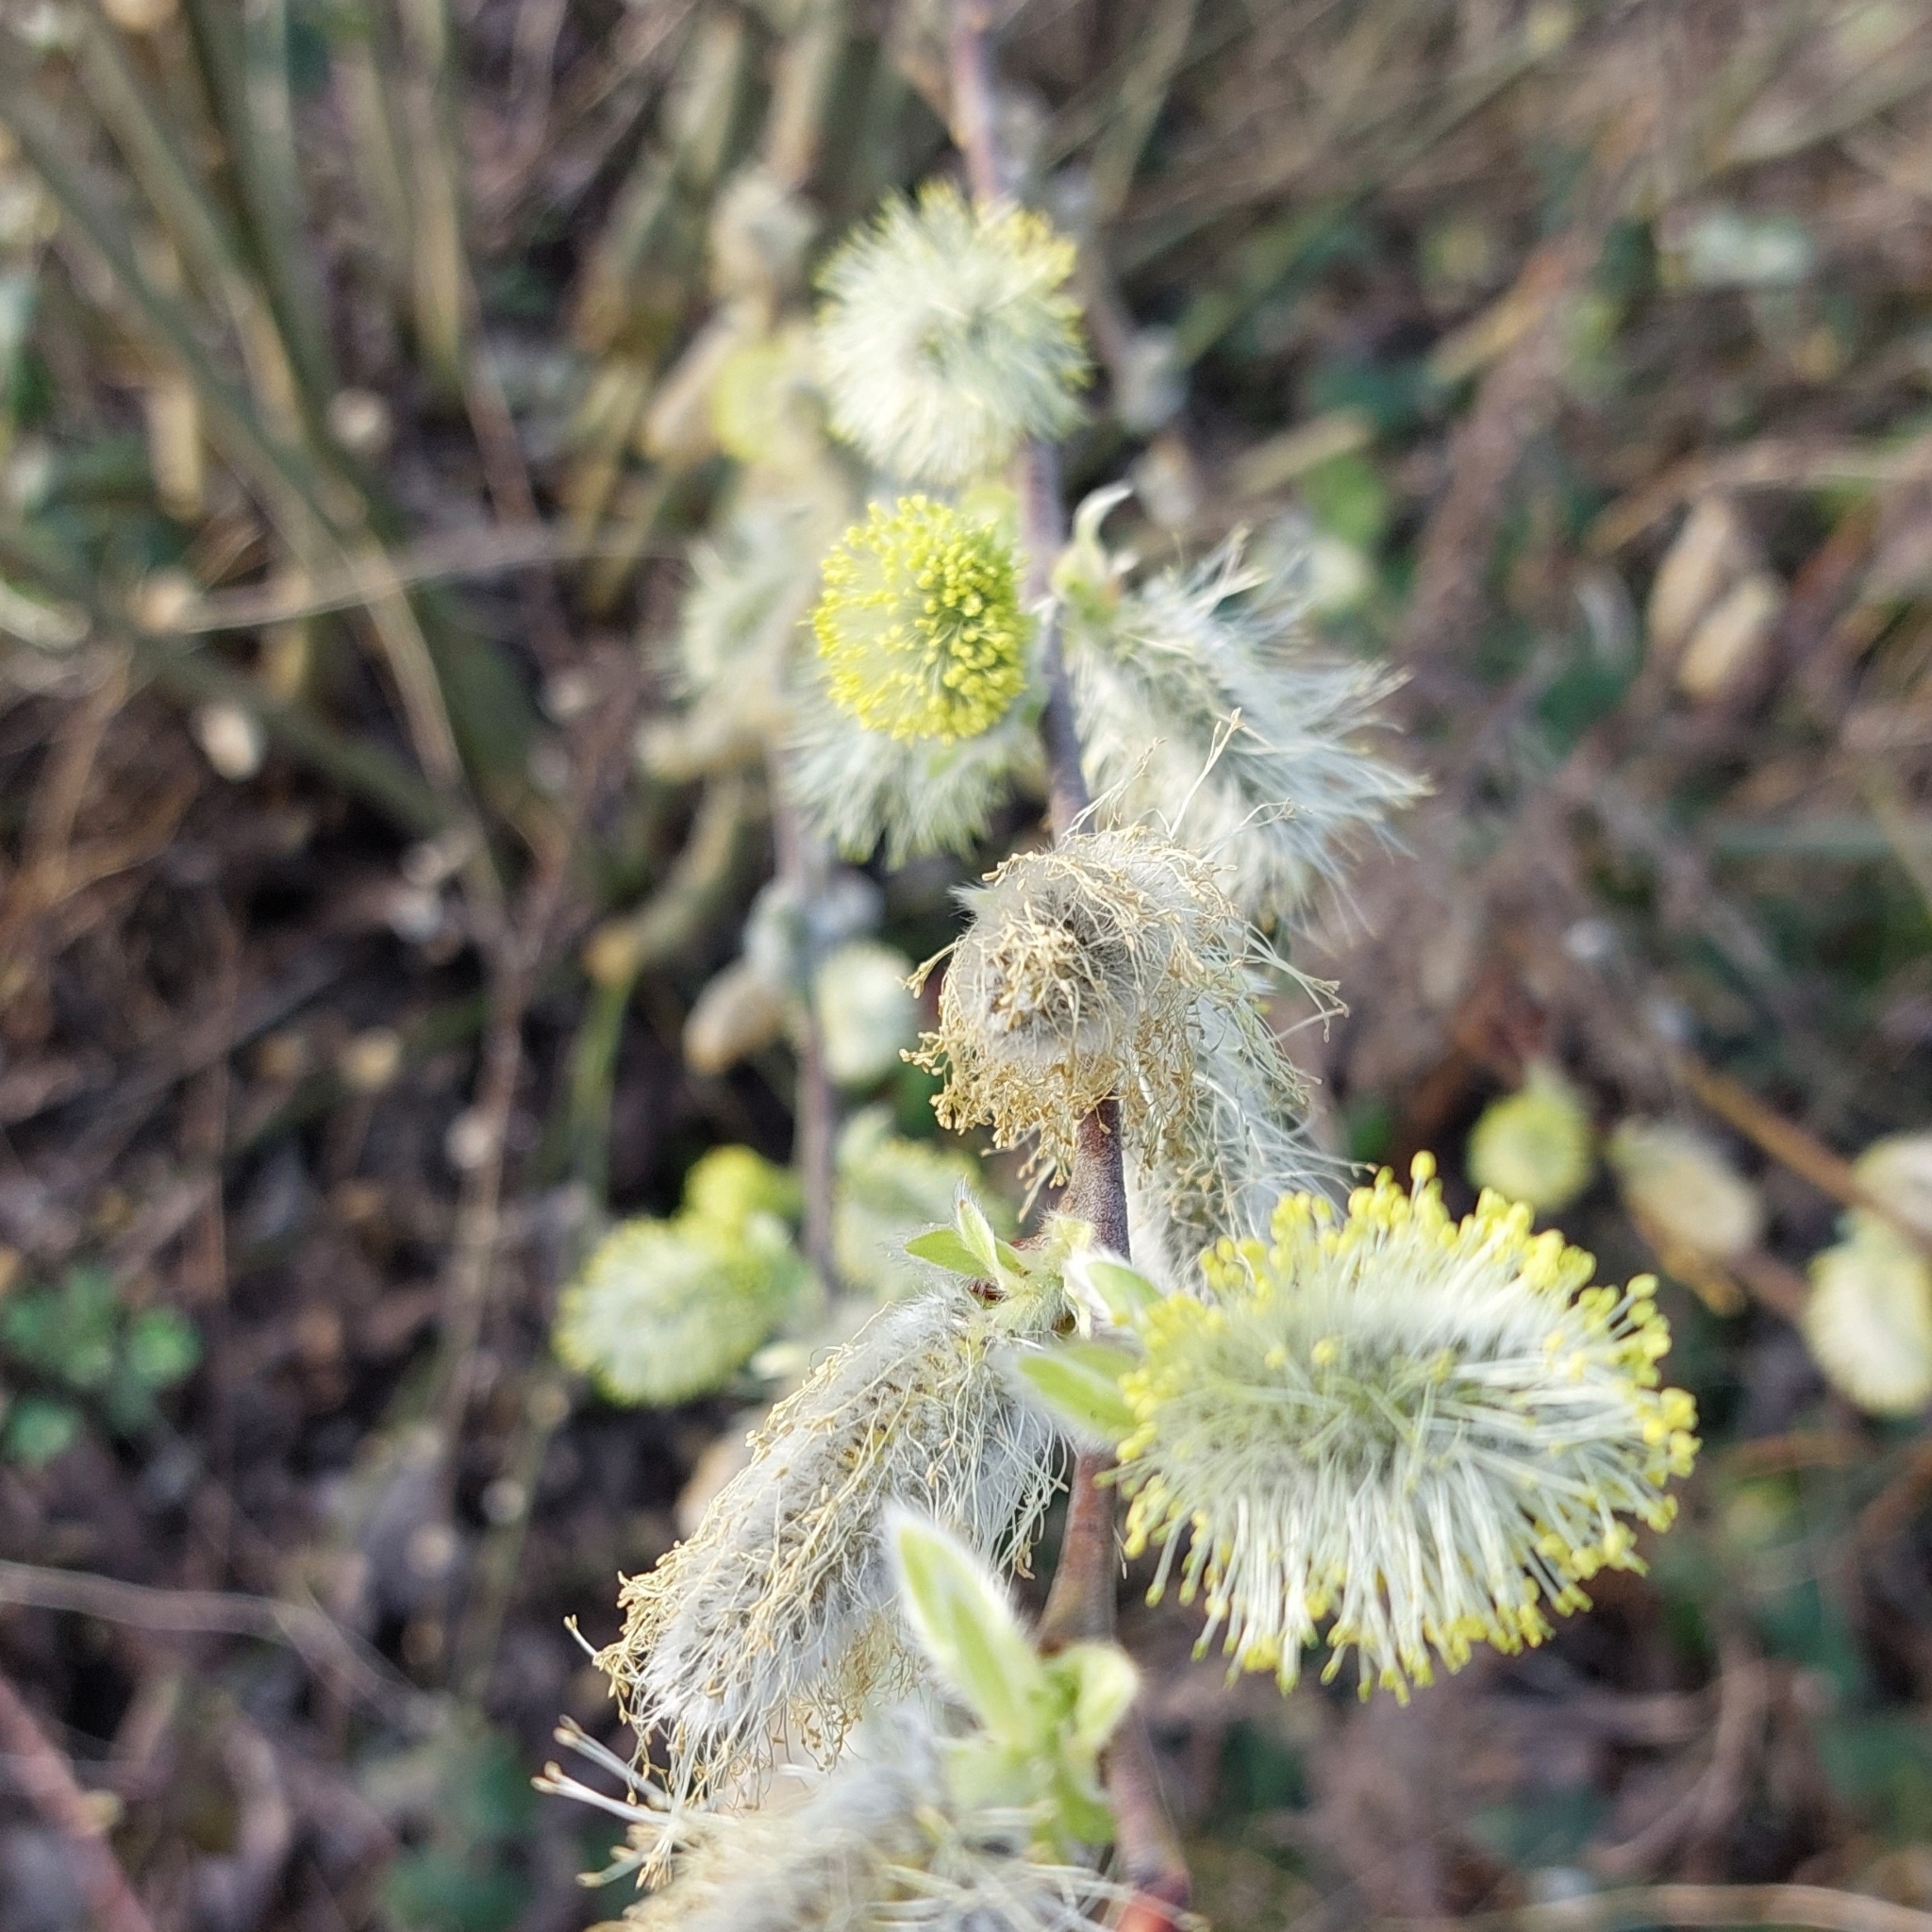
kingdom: Plantae
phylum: Tracheophyta
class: Magnoliopsida
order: Malpighiales
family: Salicaceae
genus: Salix
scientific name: Salix caprea
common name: Goat willow
